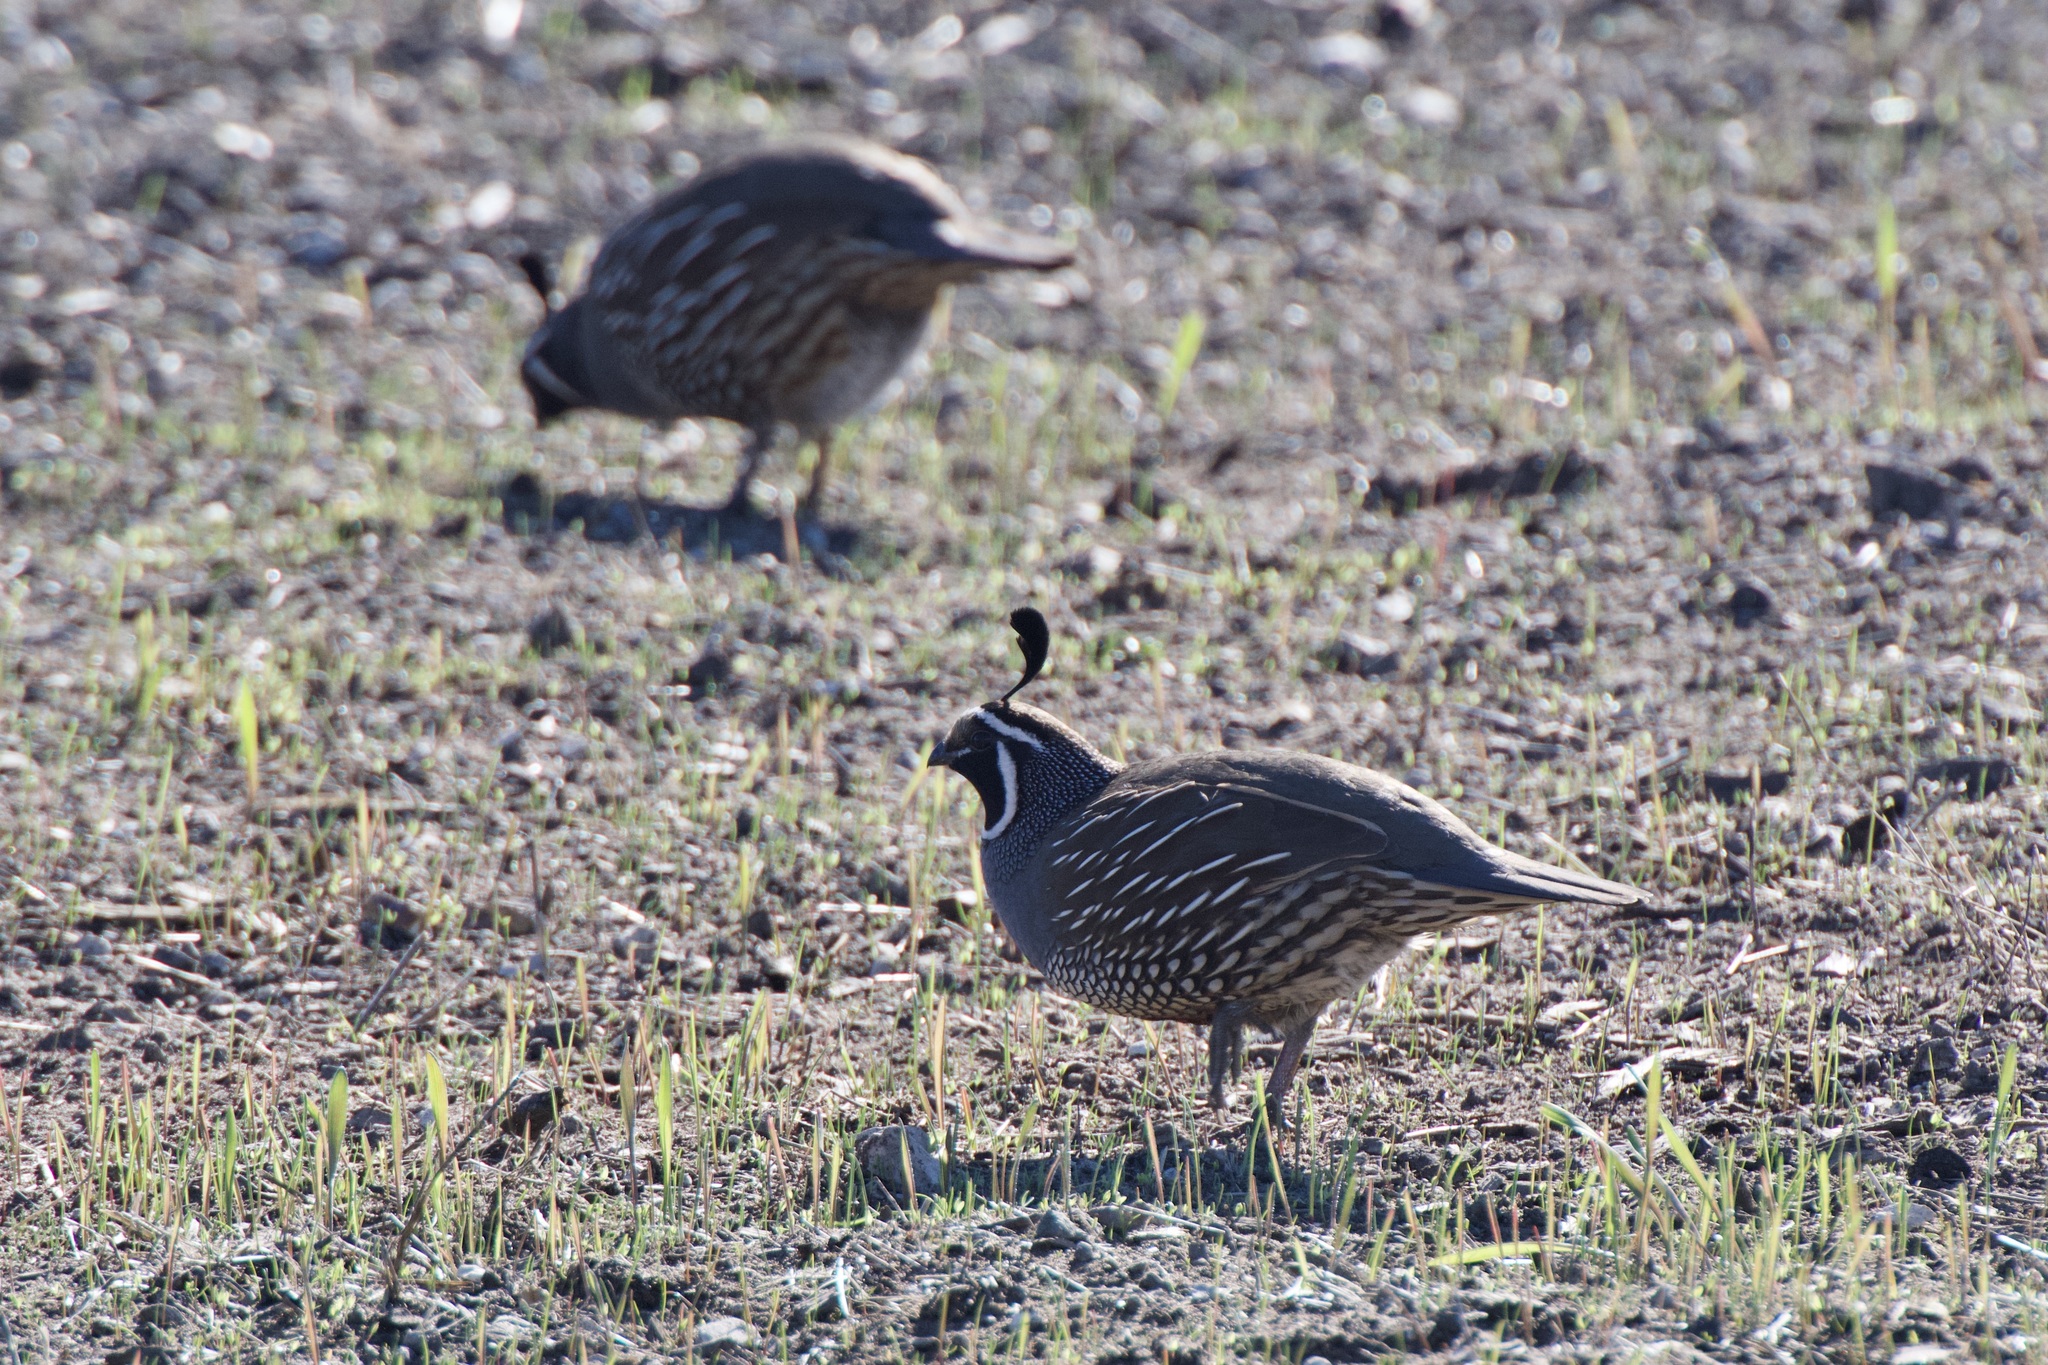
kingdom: Animalia
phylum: Chordata
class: Aves
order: Galliformes
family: Odontophoridae
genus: Callipepla
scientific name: Callipepla californica
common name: California quail
